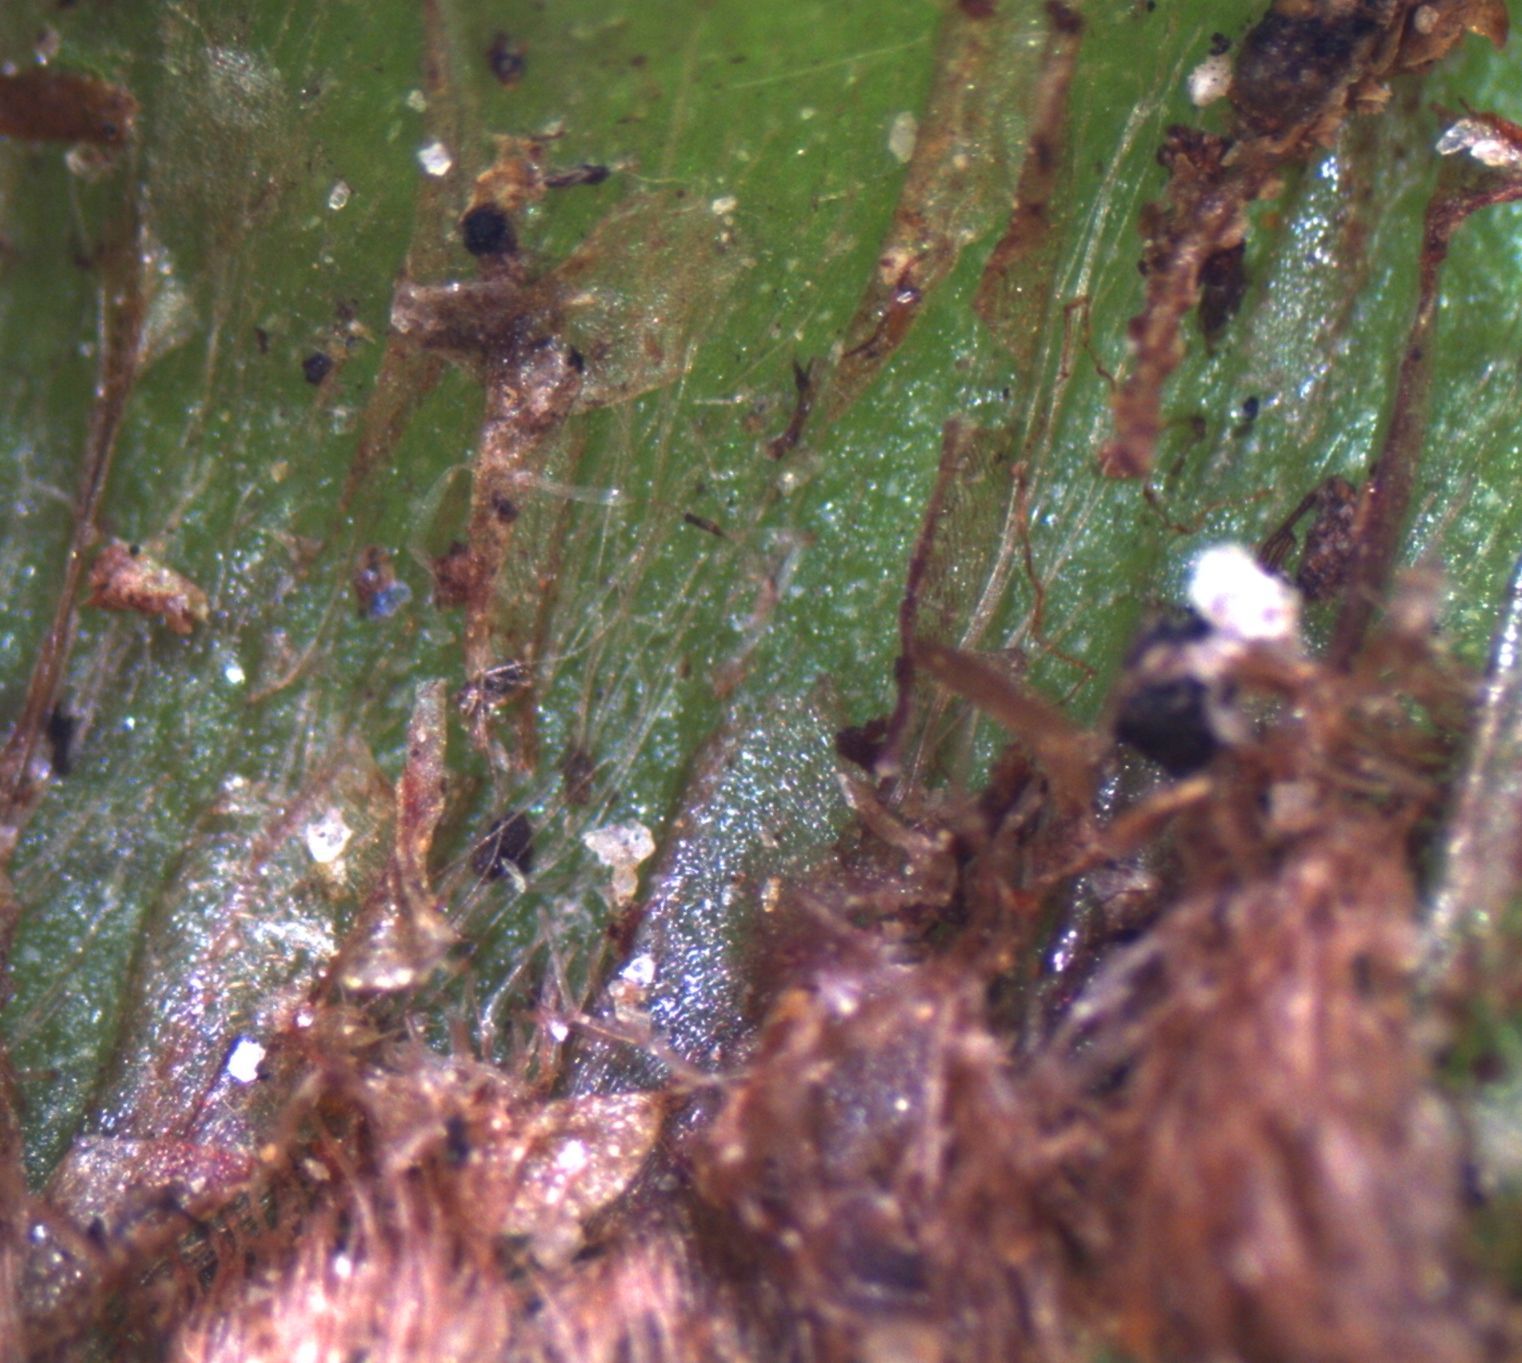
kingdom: Plantae
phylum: Marchantiophyta
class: Marchantiopsida
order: Marchantiales
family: Marchantiaceae
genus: Marchantia
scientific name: Marchantia berteroana
